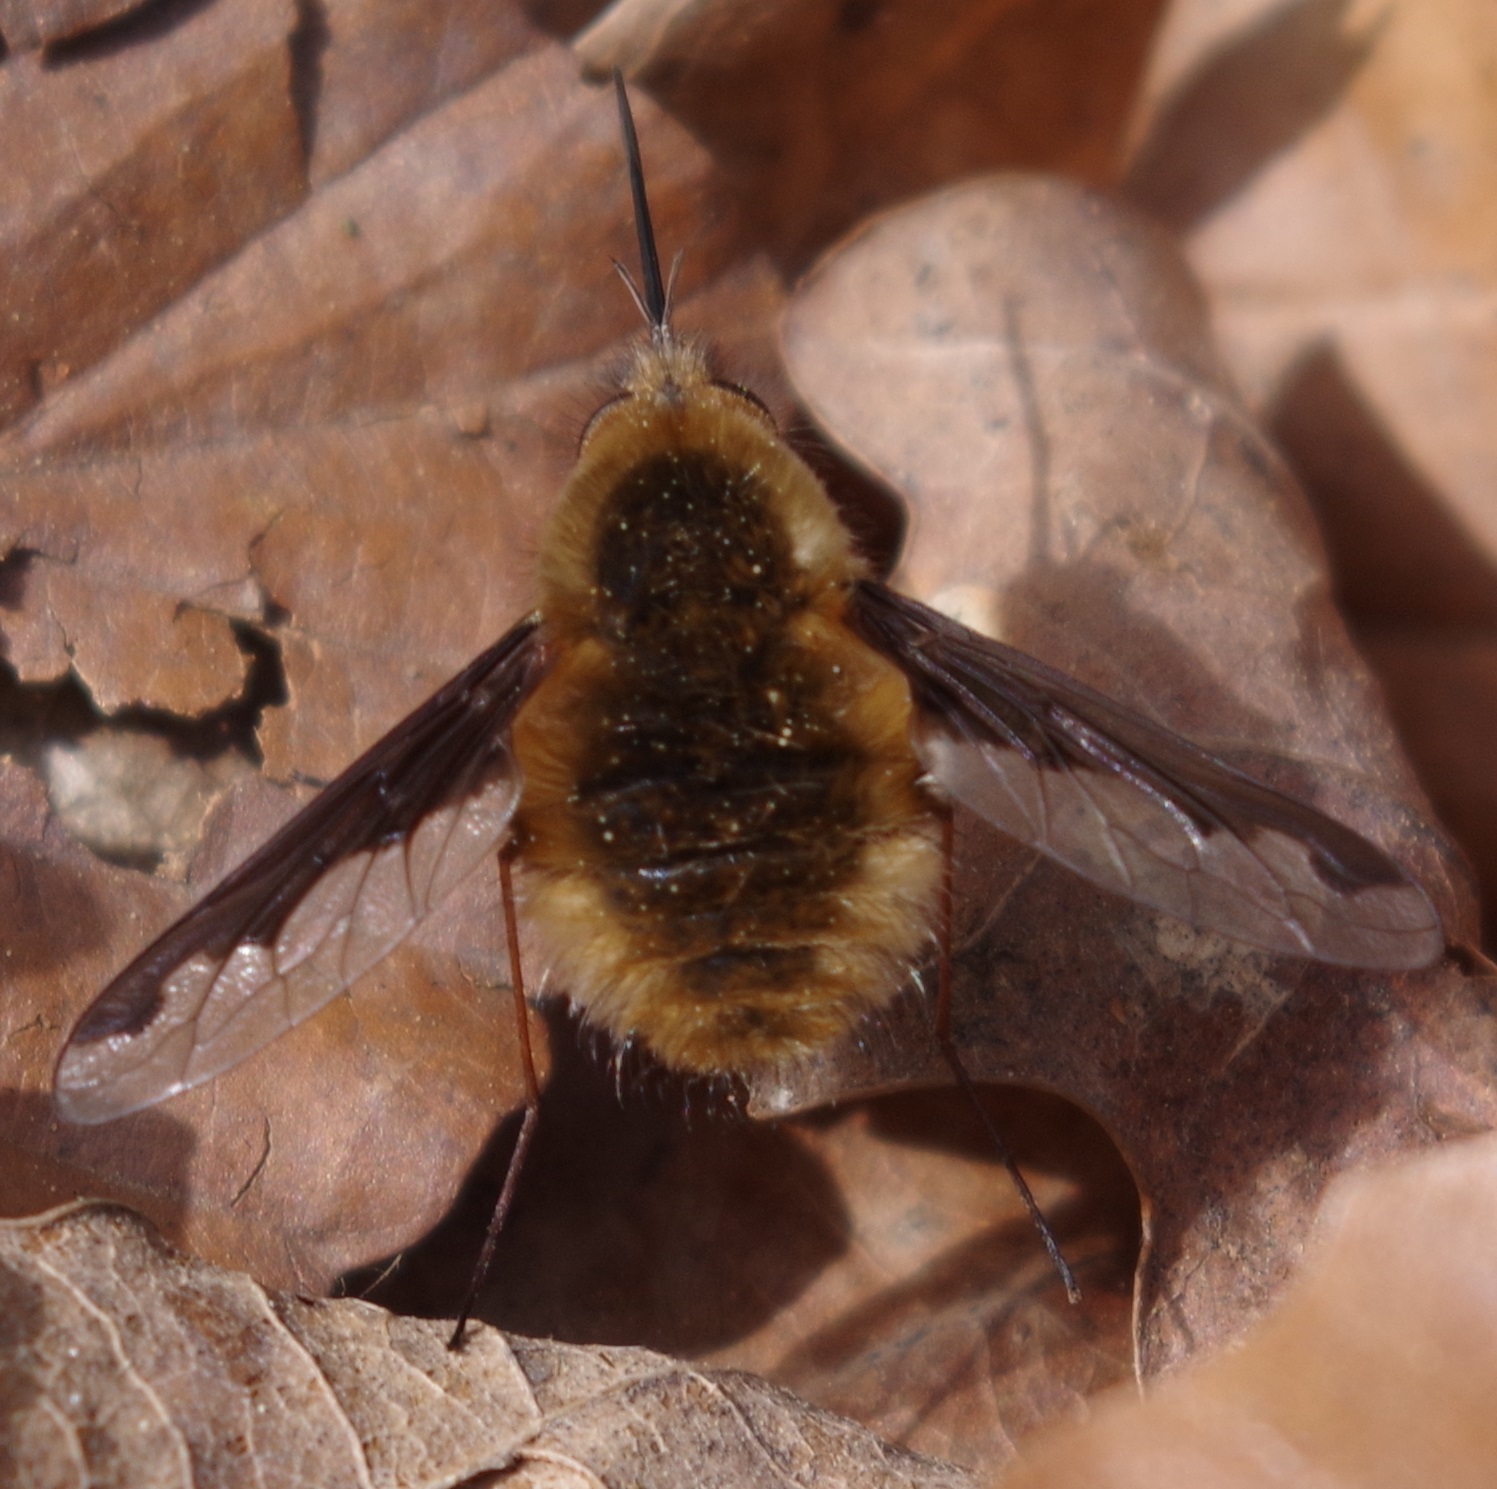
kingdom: Animalia
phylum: Arthropoda
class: Insecta
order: Diptera
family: Bombyliidae
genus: Bombylius
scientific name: Bombylius major
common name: Bee fly
